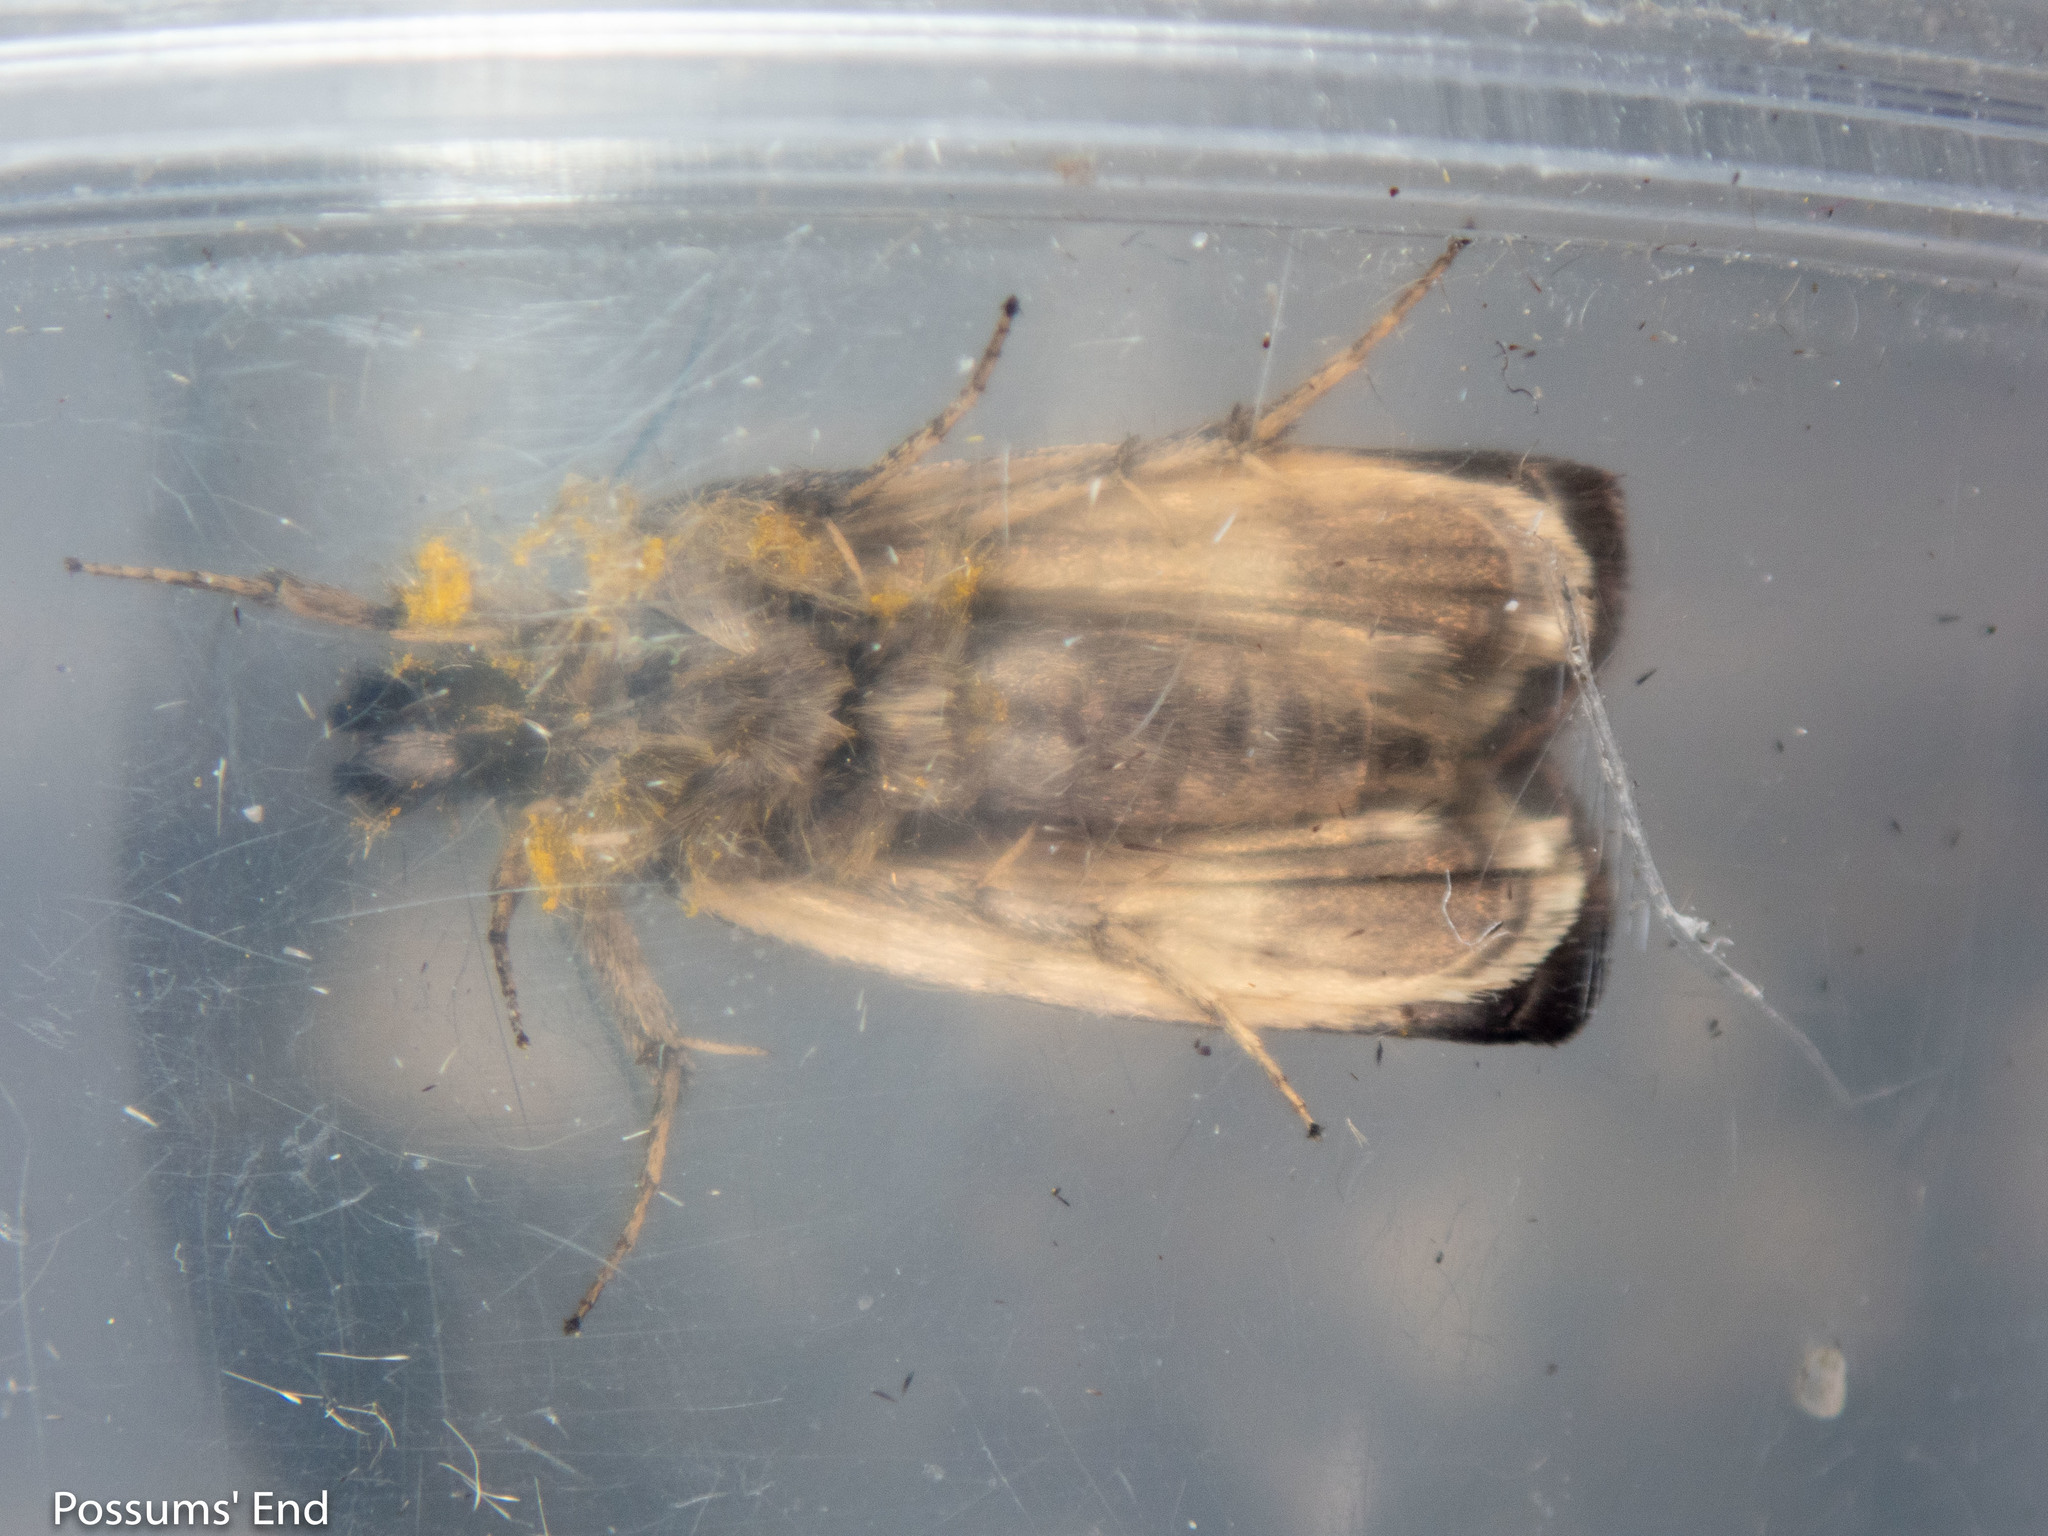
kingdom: Animalia
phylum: Arthropoda
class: Insecta
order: Lepidoptera
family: Crambidae
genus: Orocrambus
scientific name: Orocrambus melampetrus
